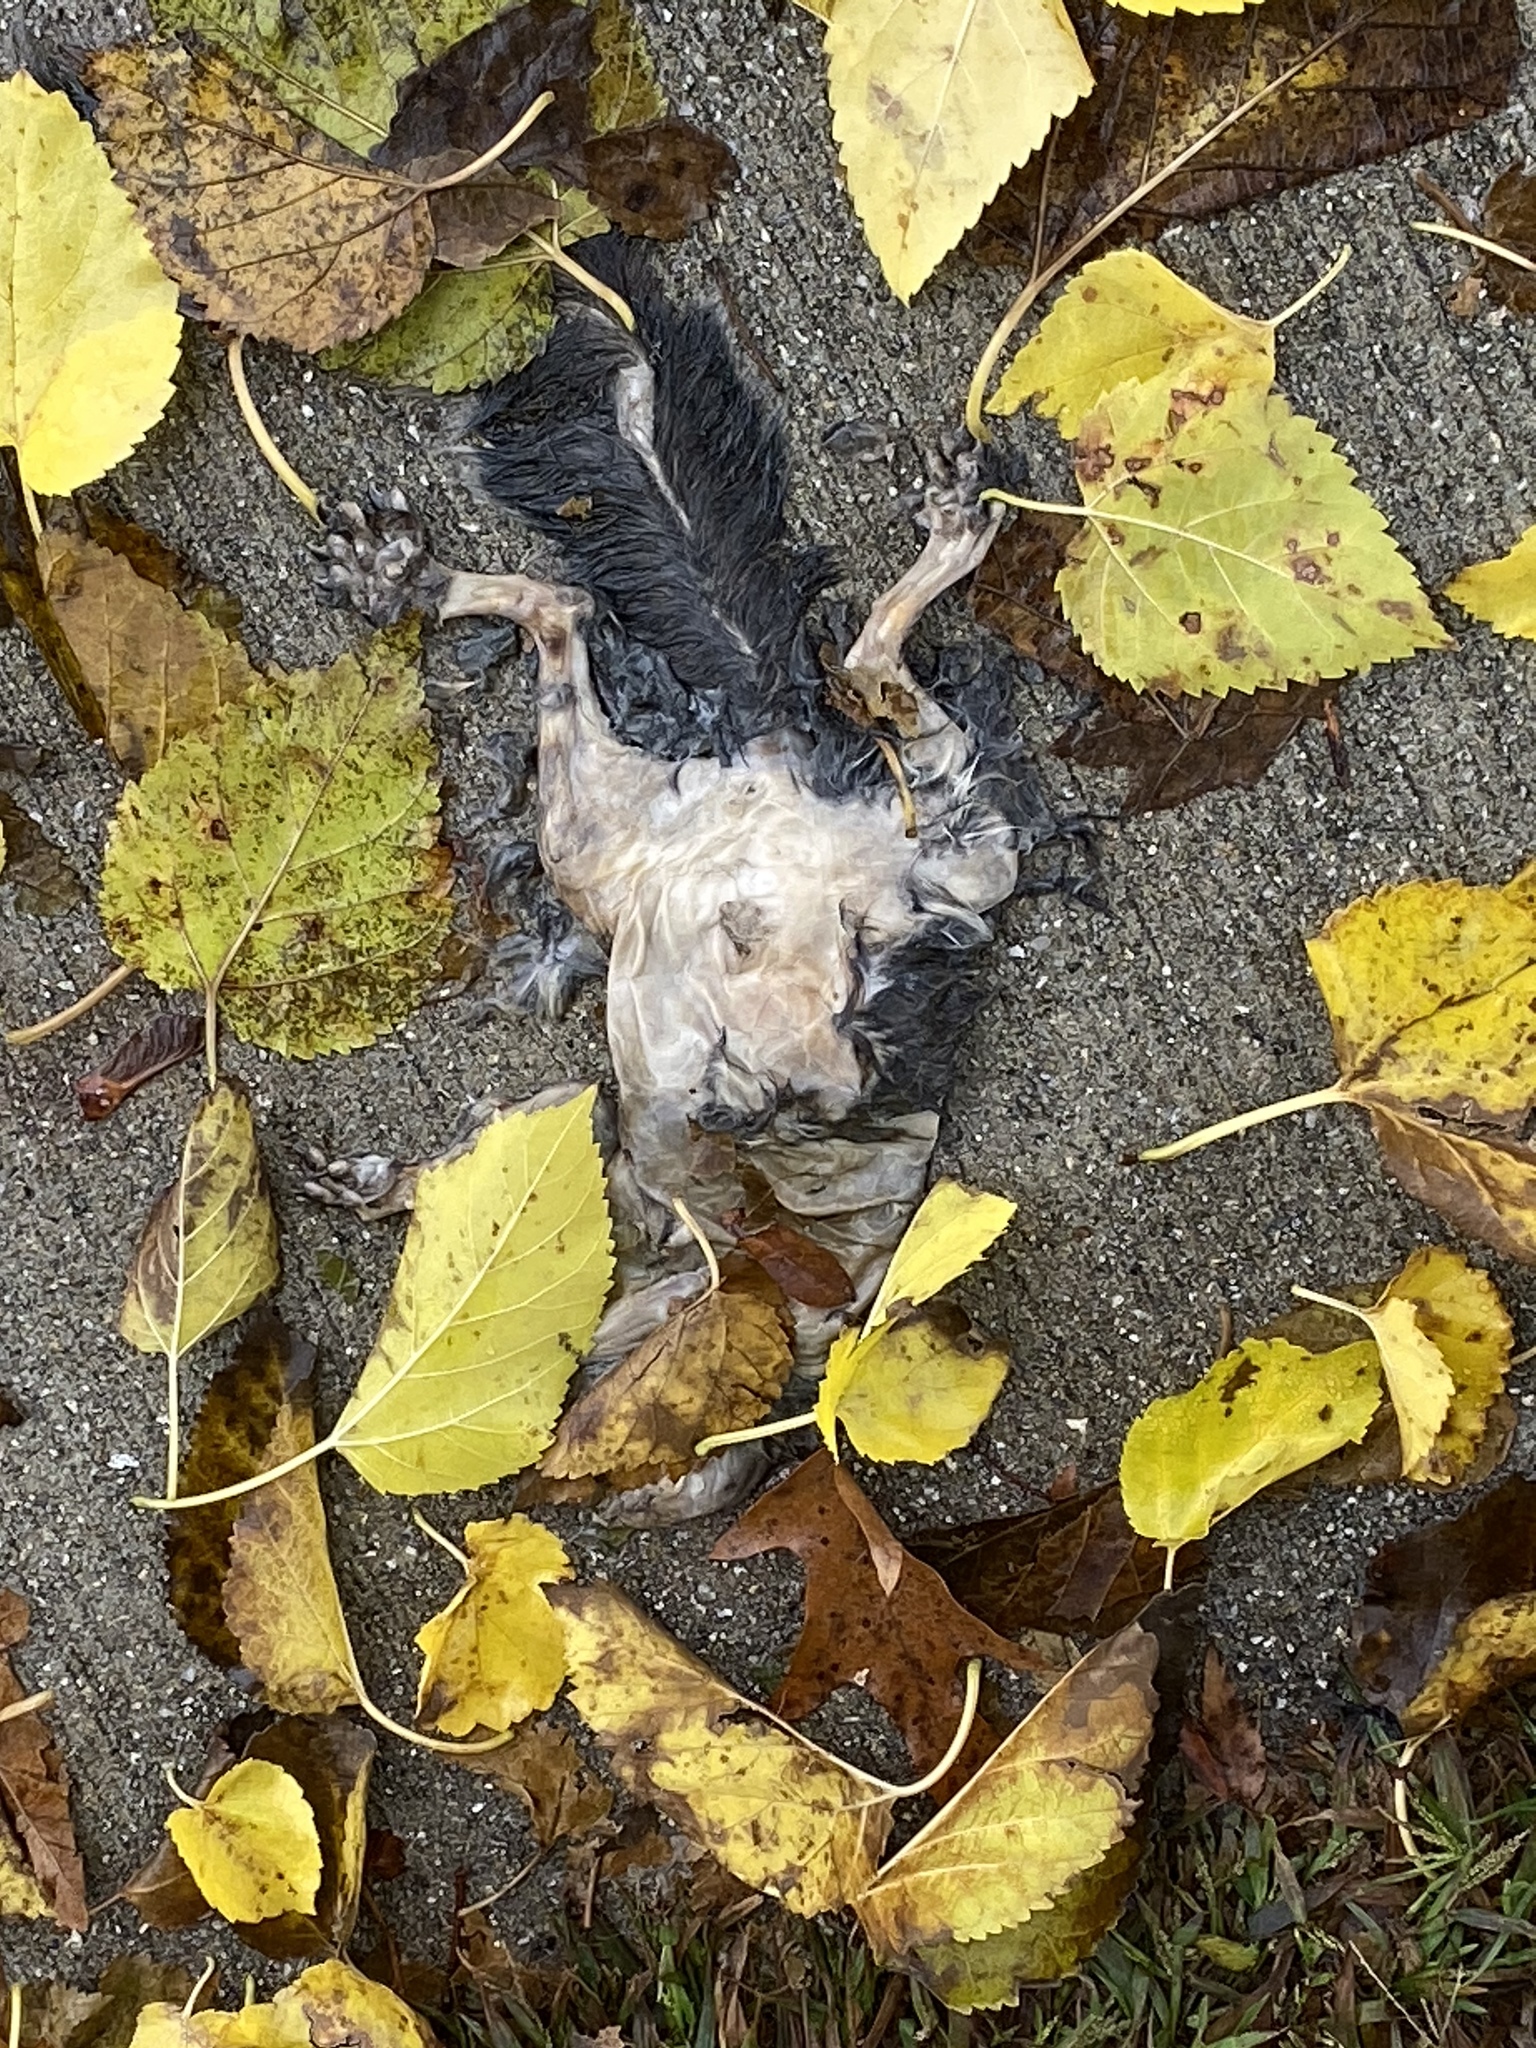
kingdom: Animalia
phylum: Chordata
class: Mammalia
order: Rodentia
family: Sciuridae
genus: Sciurus
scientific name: Sciurus carolinensis
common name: Eastern gray squirrel
